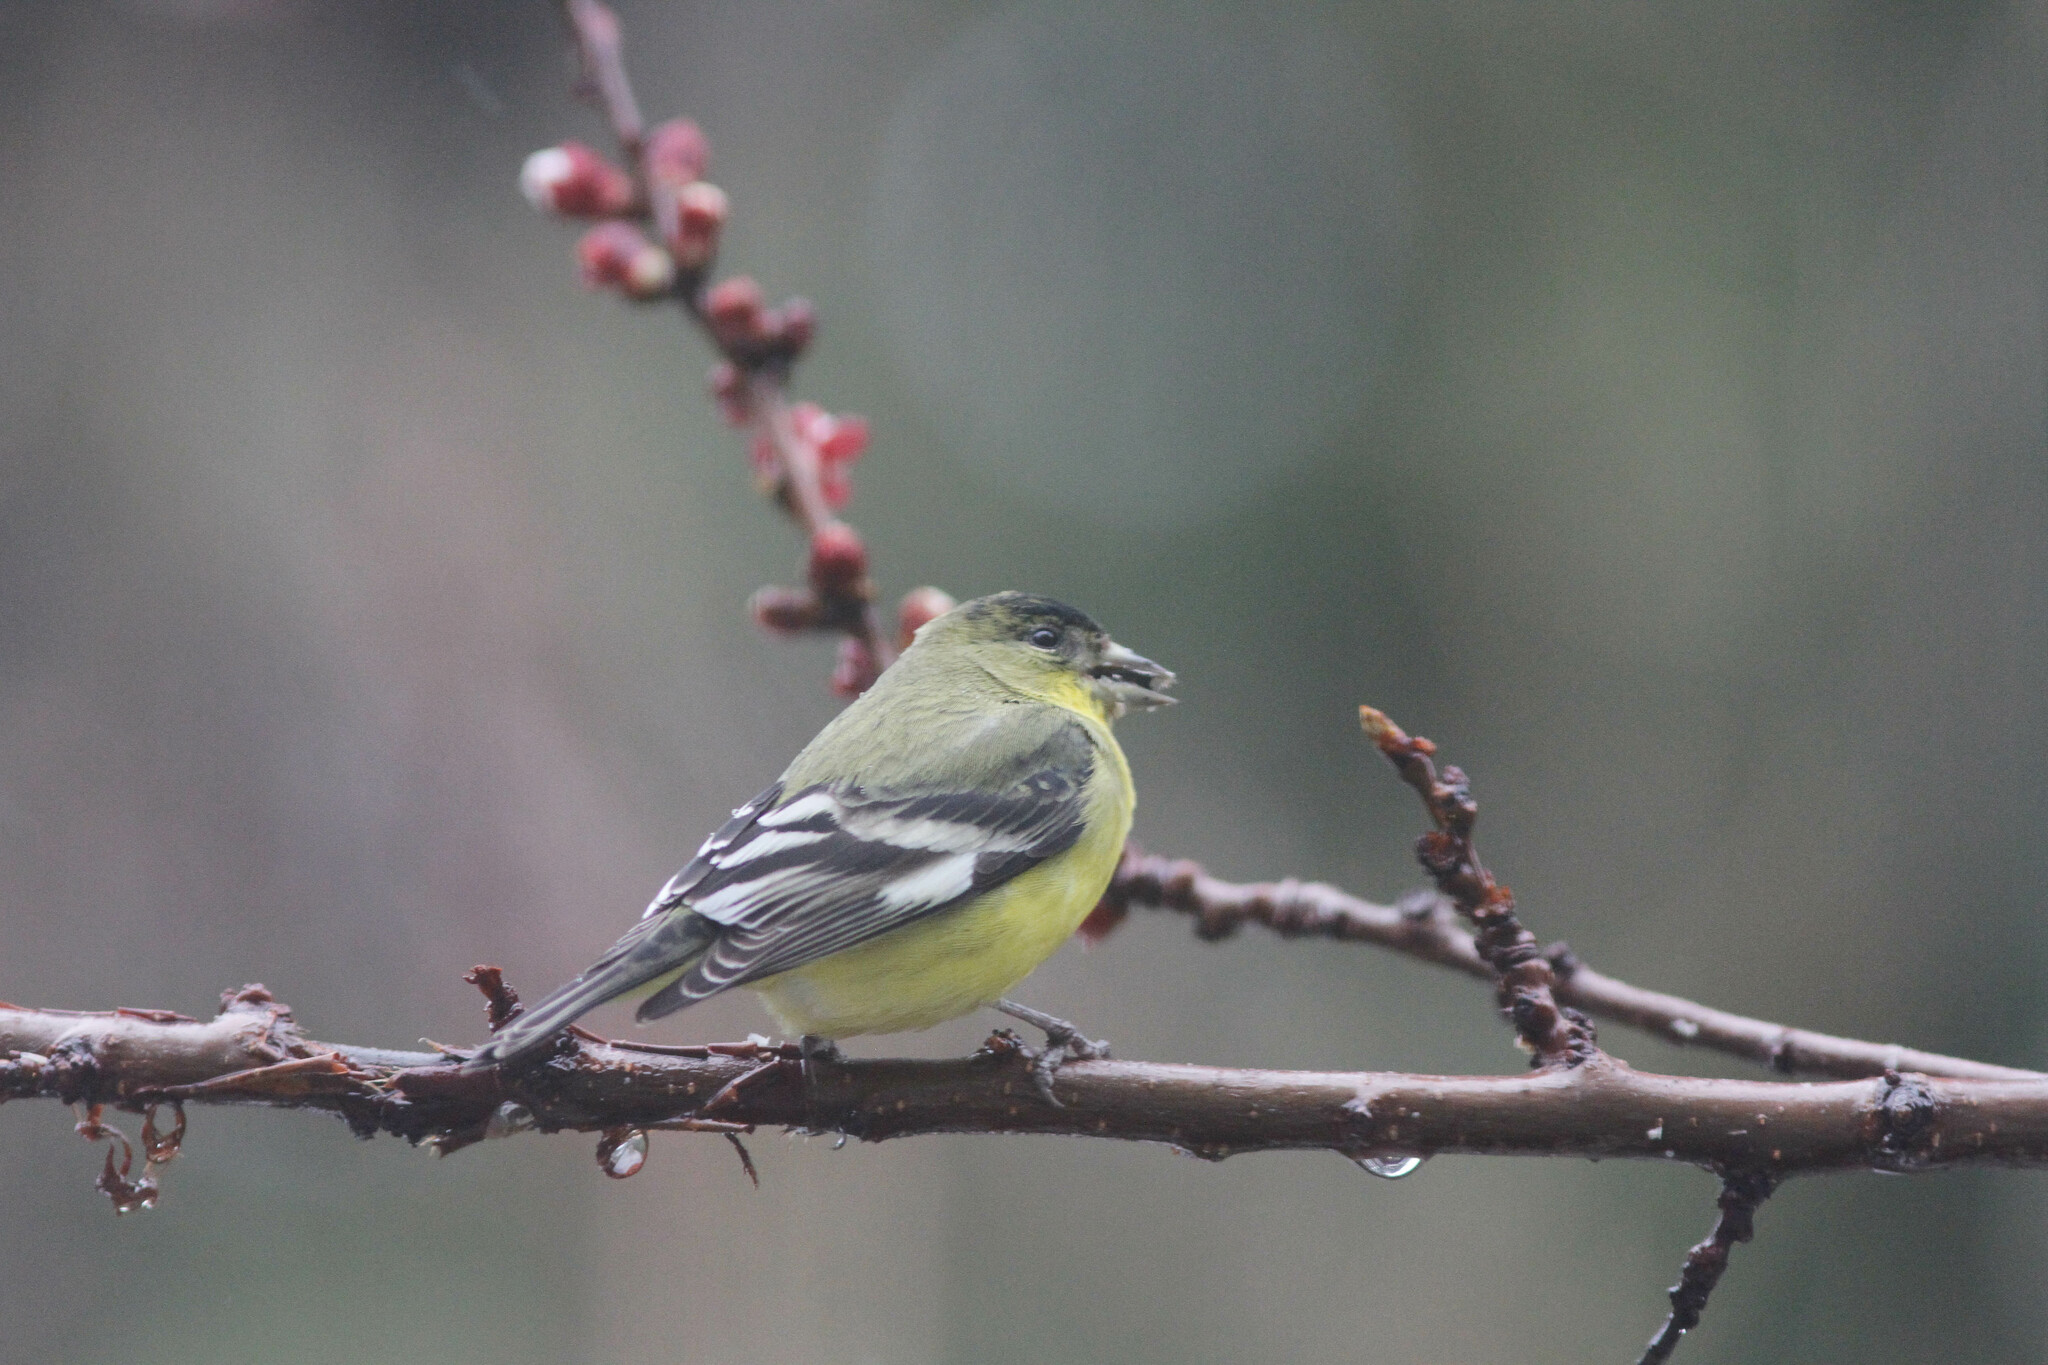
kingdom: Animalia
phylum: Chordata
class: Aves
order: Passeriformes
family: Fringillidae
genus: Spinus
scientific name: Spinus psaltria
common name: Lesser goldfinch
